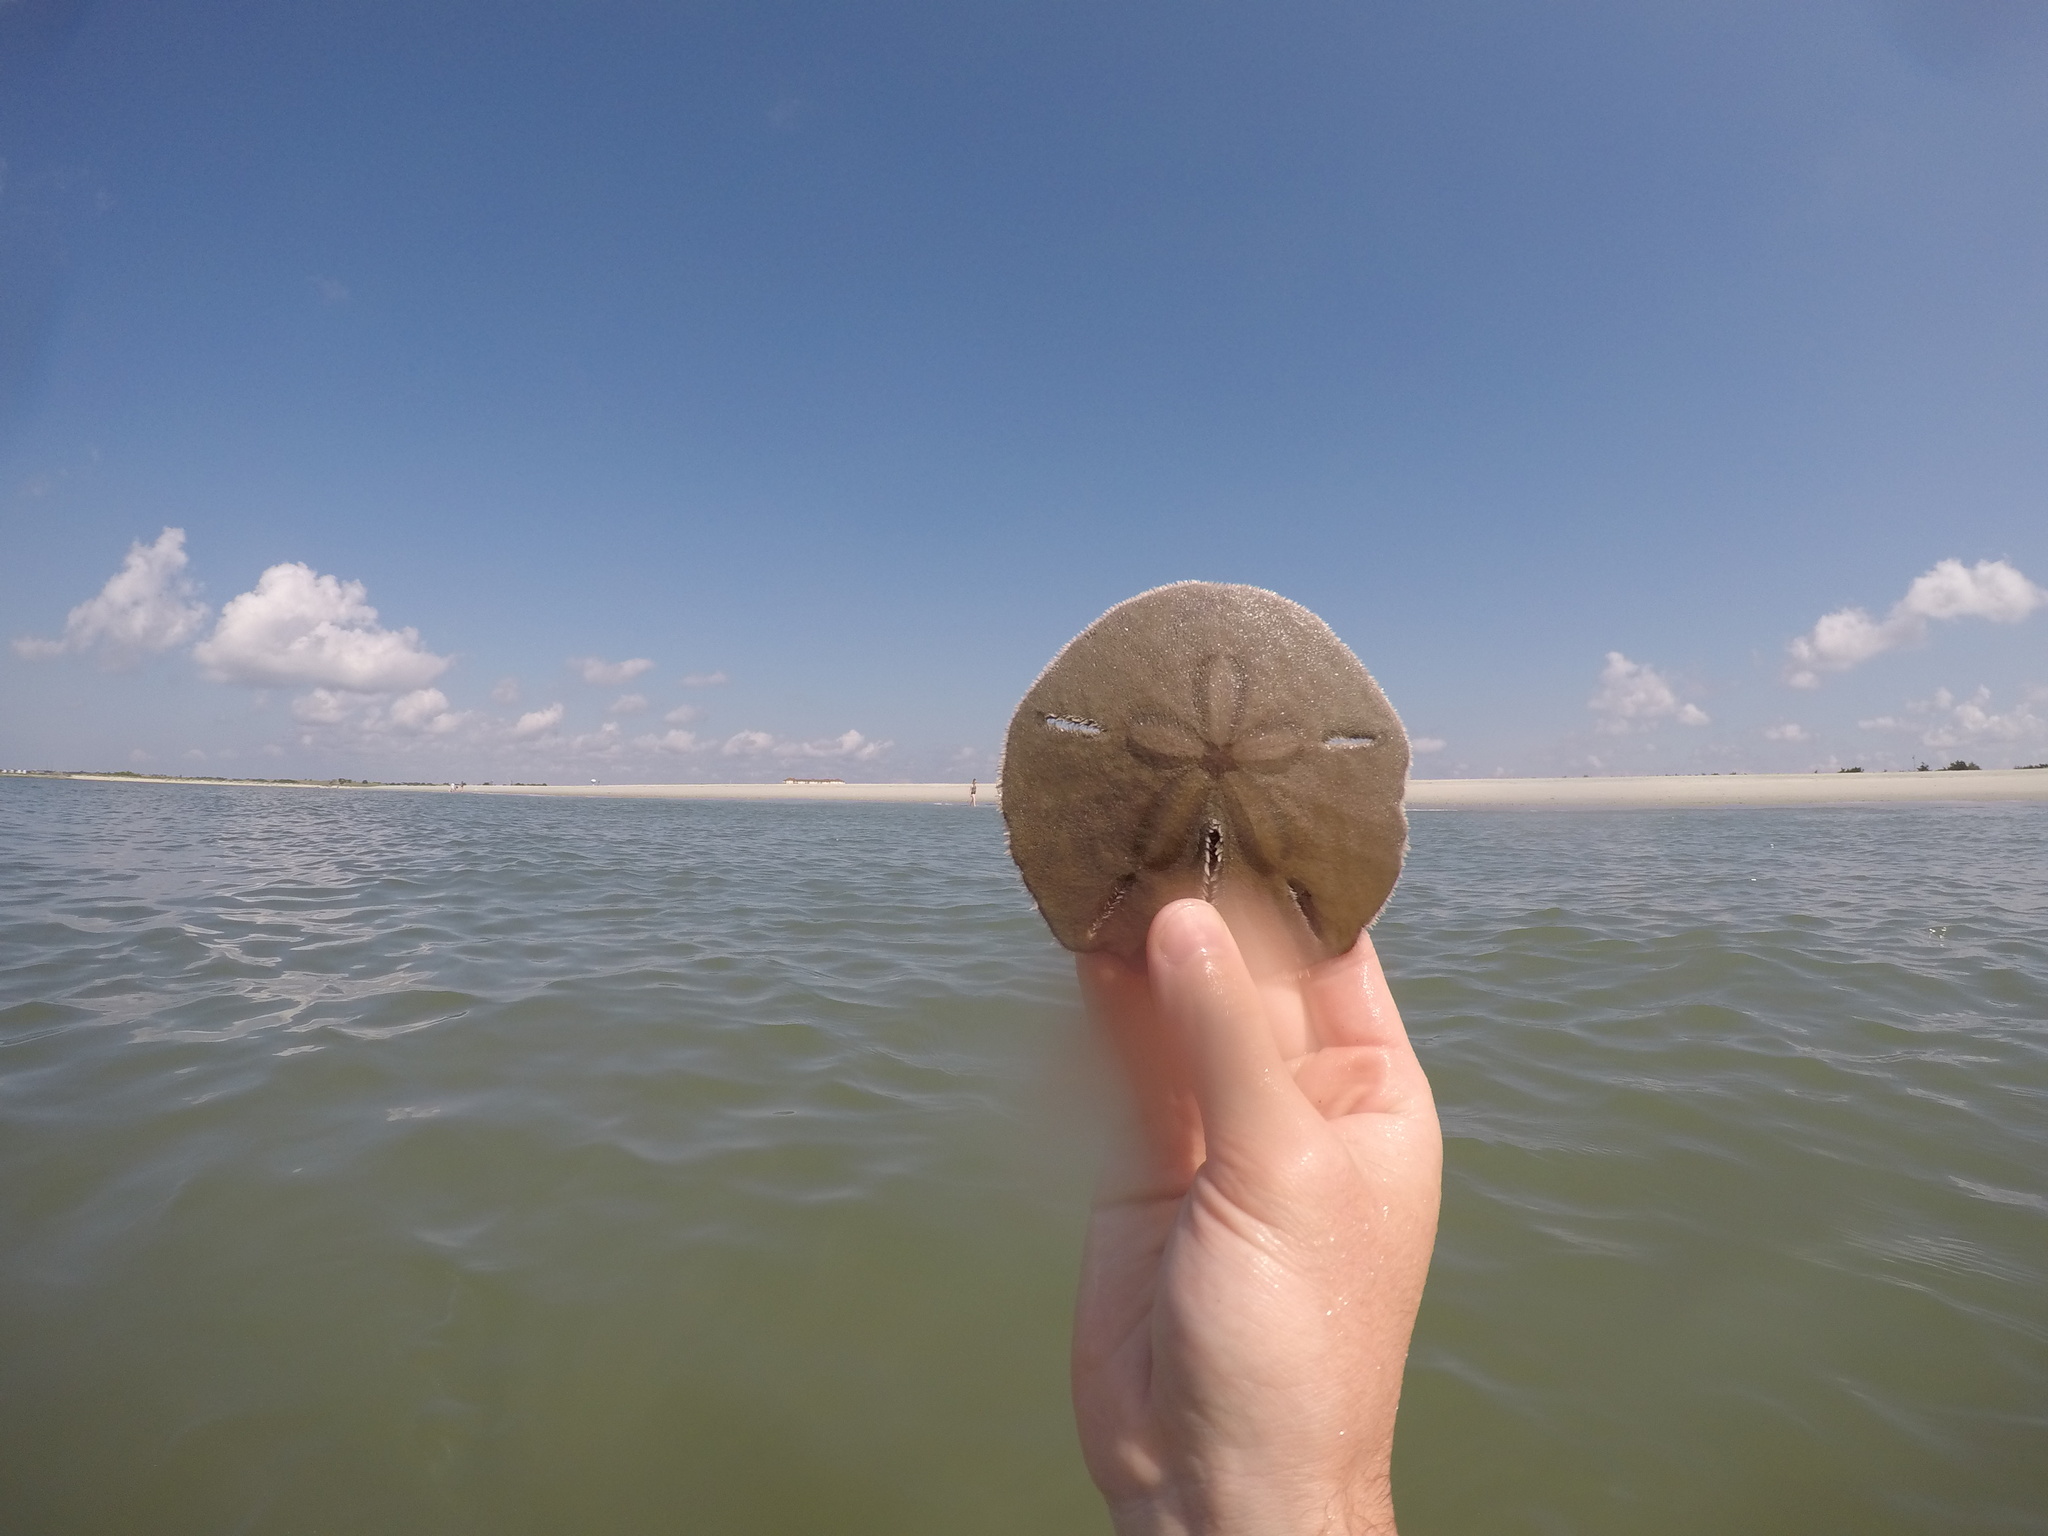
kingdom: Animalia
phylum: Echinodermata
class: Echinoidea
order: Echinolampadacea
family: Mellitidae
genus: Mellita
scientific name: Mellita quinquiesperforata
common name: Sand dollar
